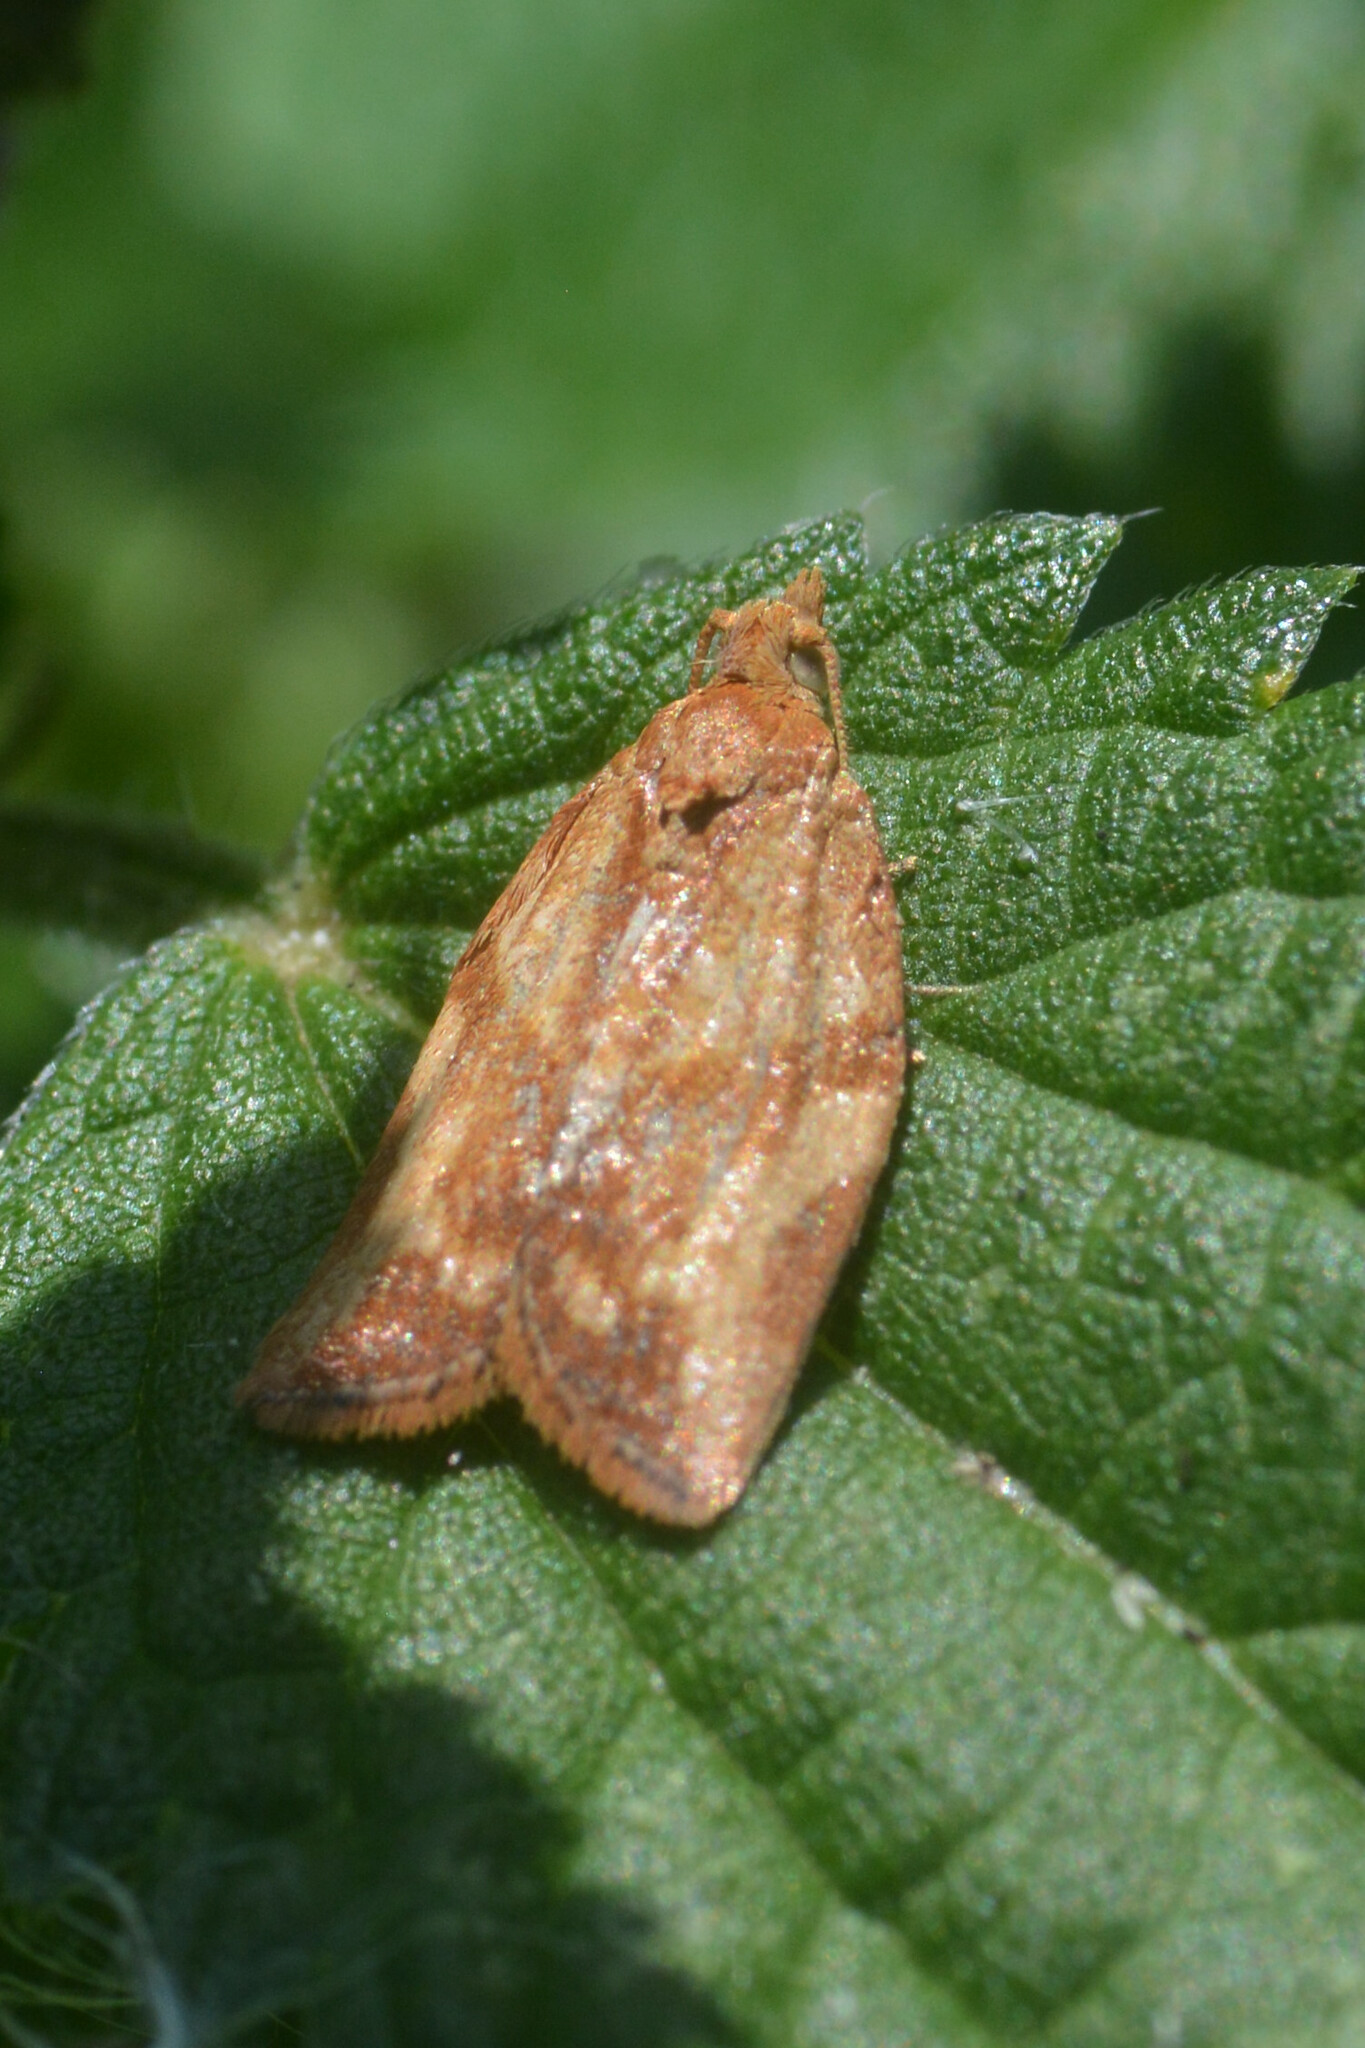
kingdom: Animalia
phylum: Arthropoda
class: Insecta
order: Lepidoptera
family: Tortricidae
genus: Epiphyas
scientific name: Epiphyas postvittana
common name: Light brown apple moth
